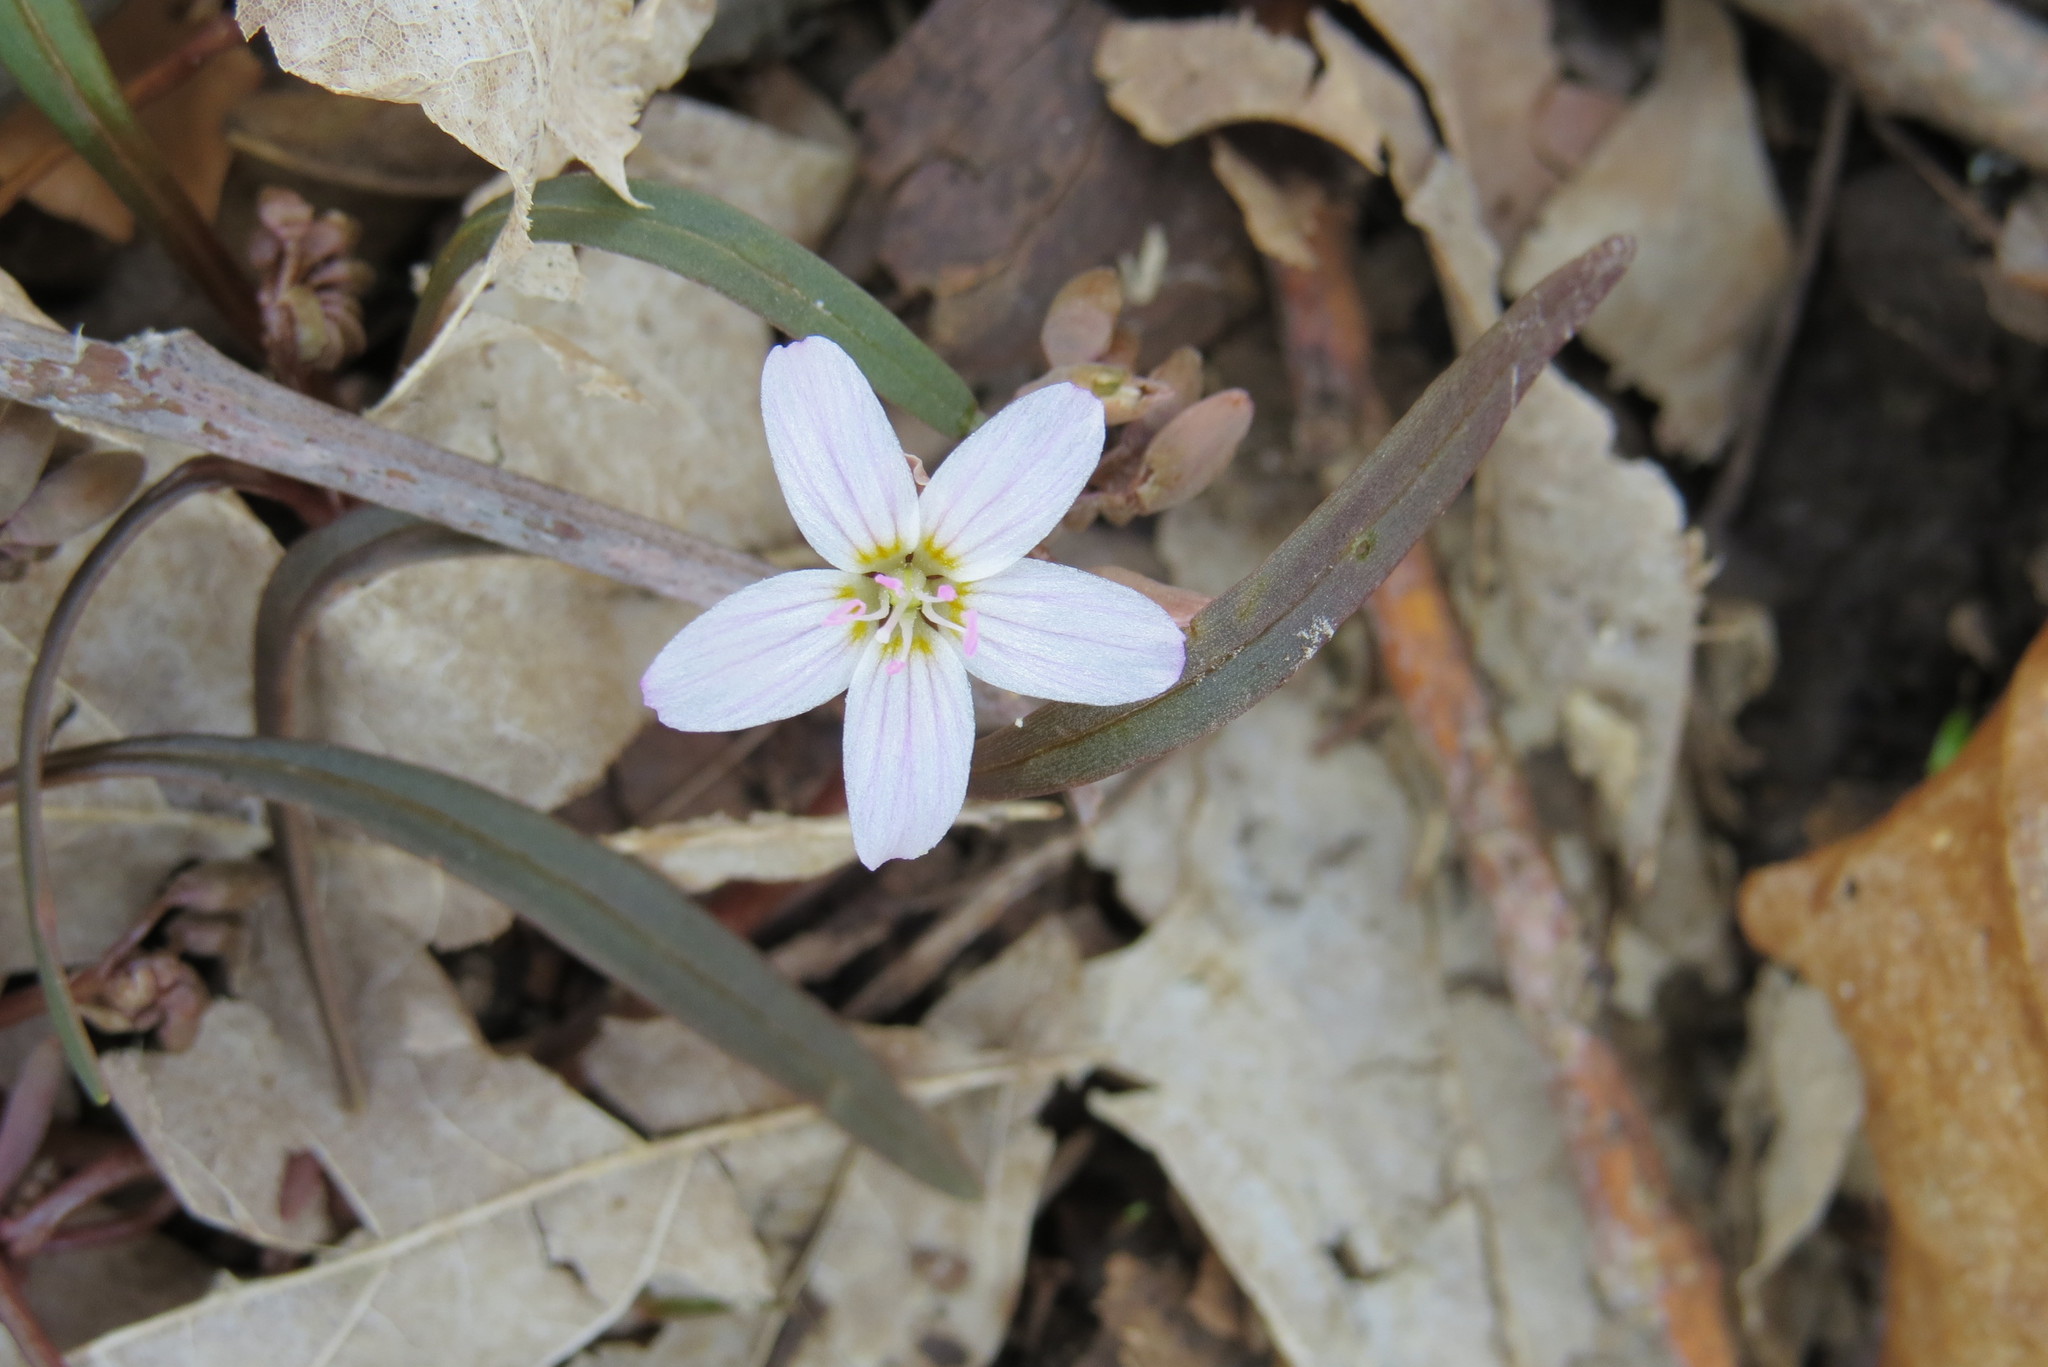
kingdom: Plantae
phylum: Tracheophyta
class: Magnoliopsida
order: Caryophyllales
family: Montiaceae
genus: Claytonia
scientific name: Claytonia virginica
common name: Virginia springbeauty
